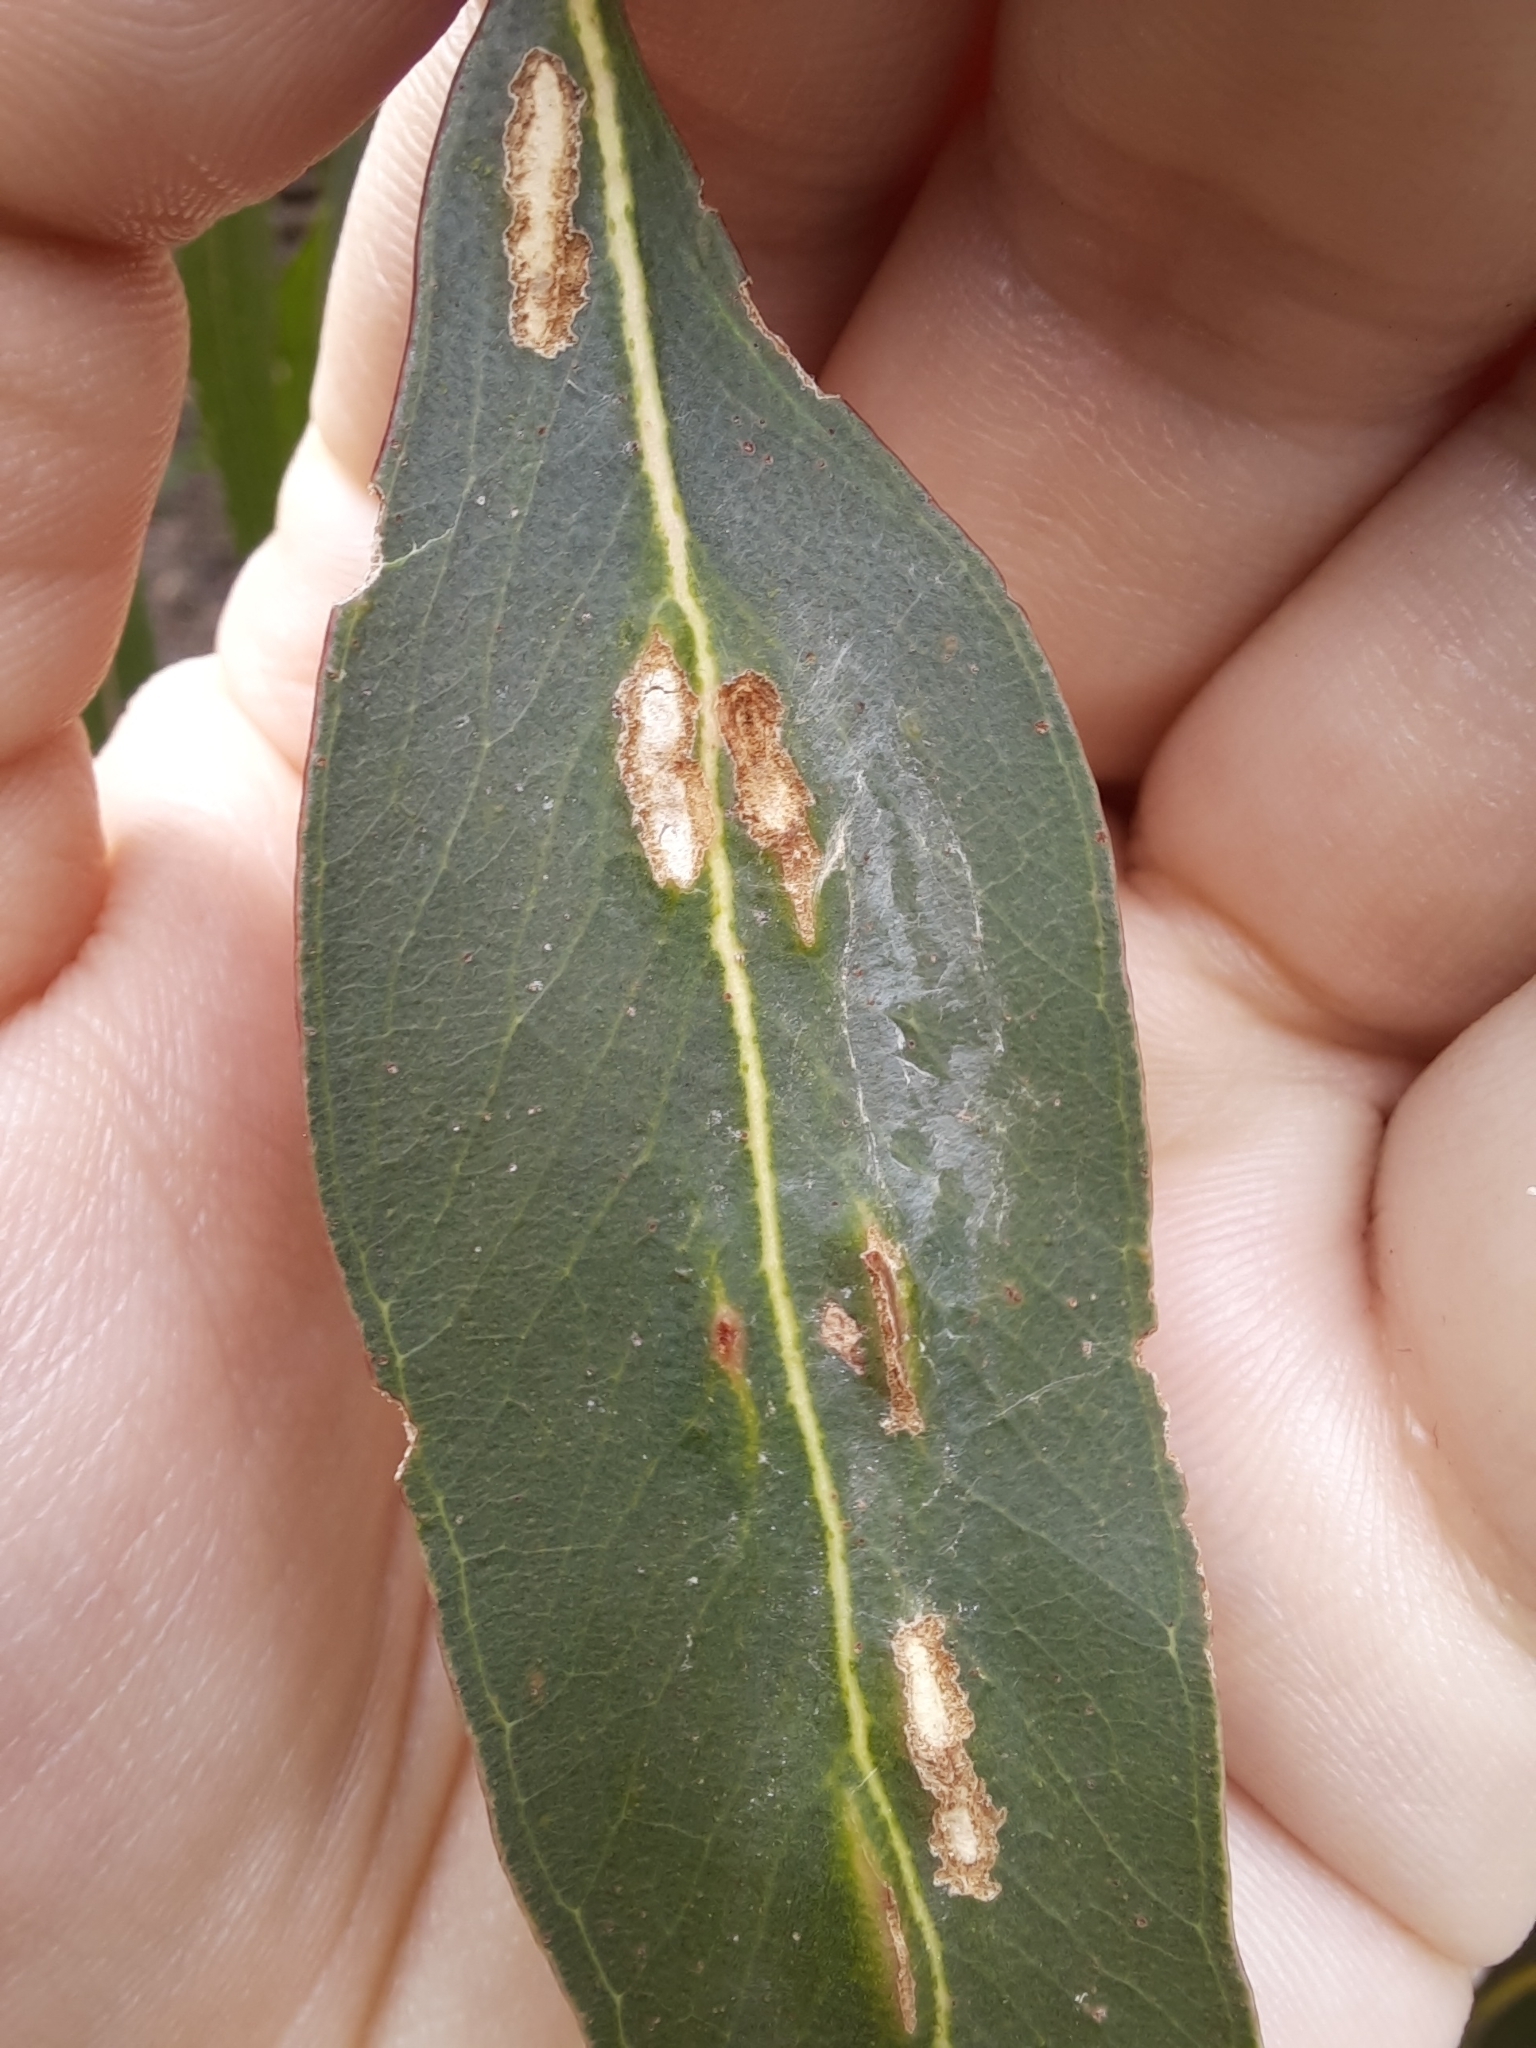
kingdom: Animalia
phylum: Arthropoda
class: Insecta
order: Hymenoptera
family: Pteromalidae
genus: Nambouria
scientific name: Nambouria xanthops
